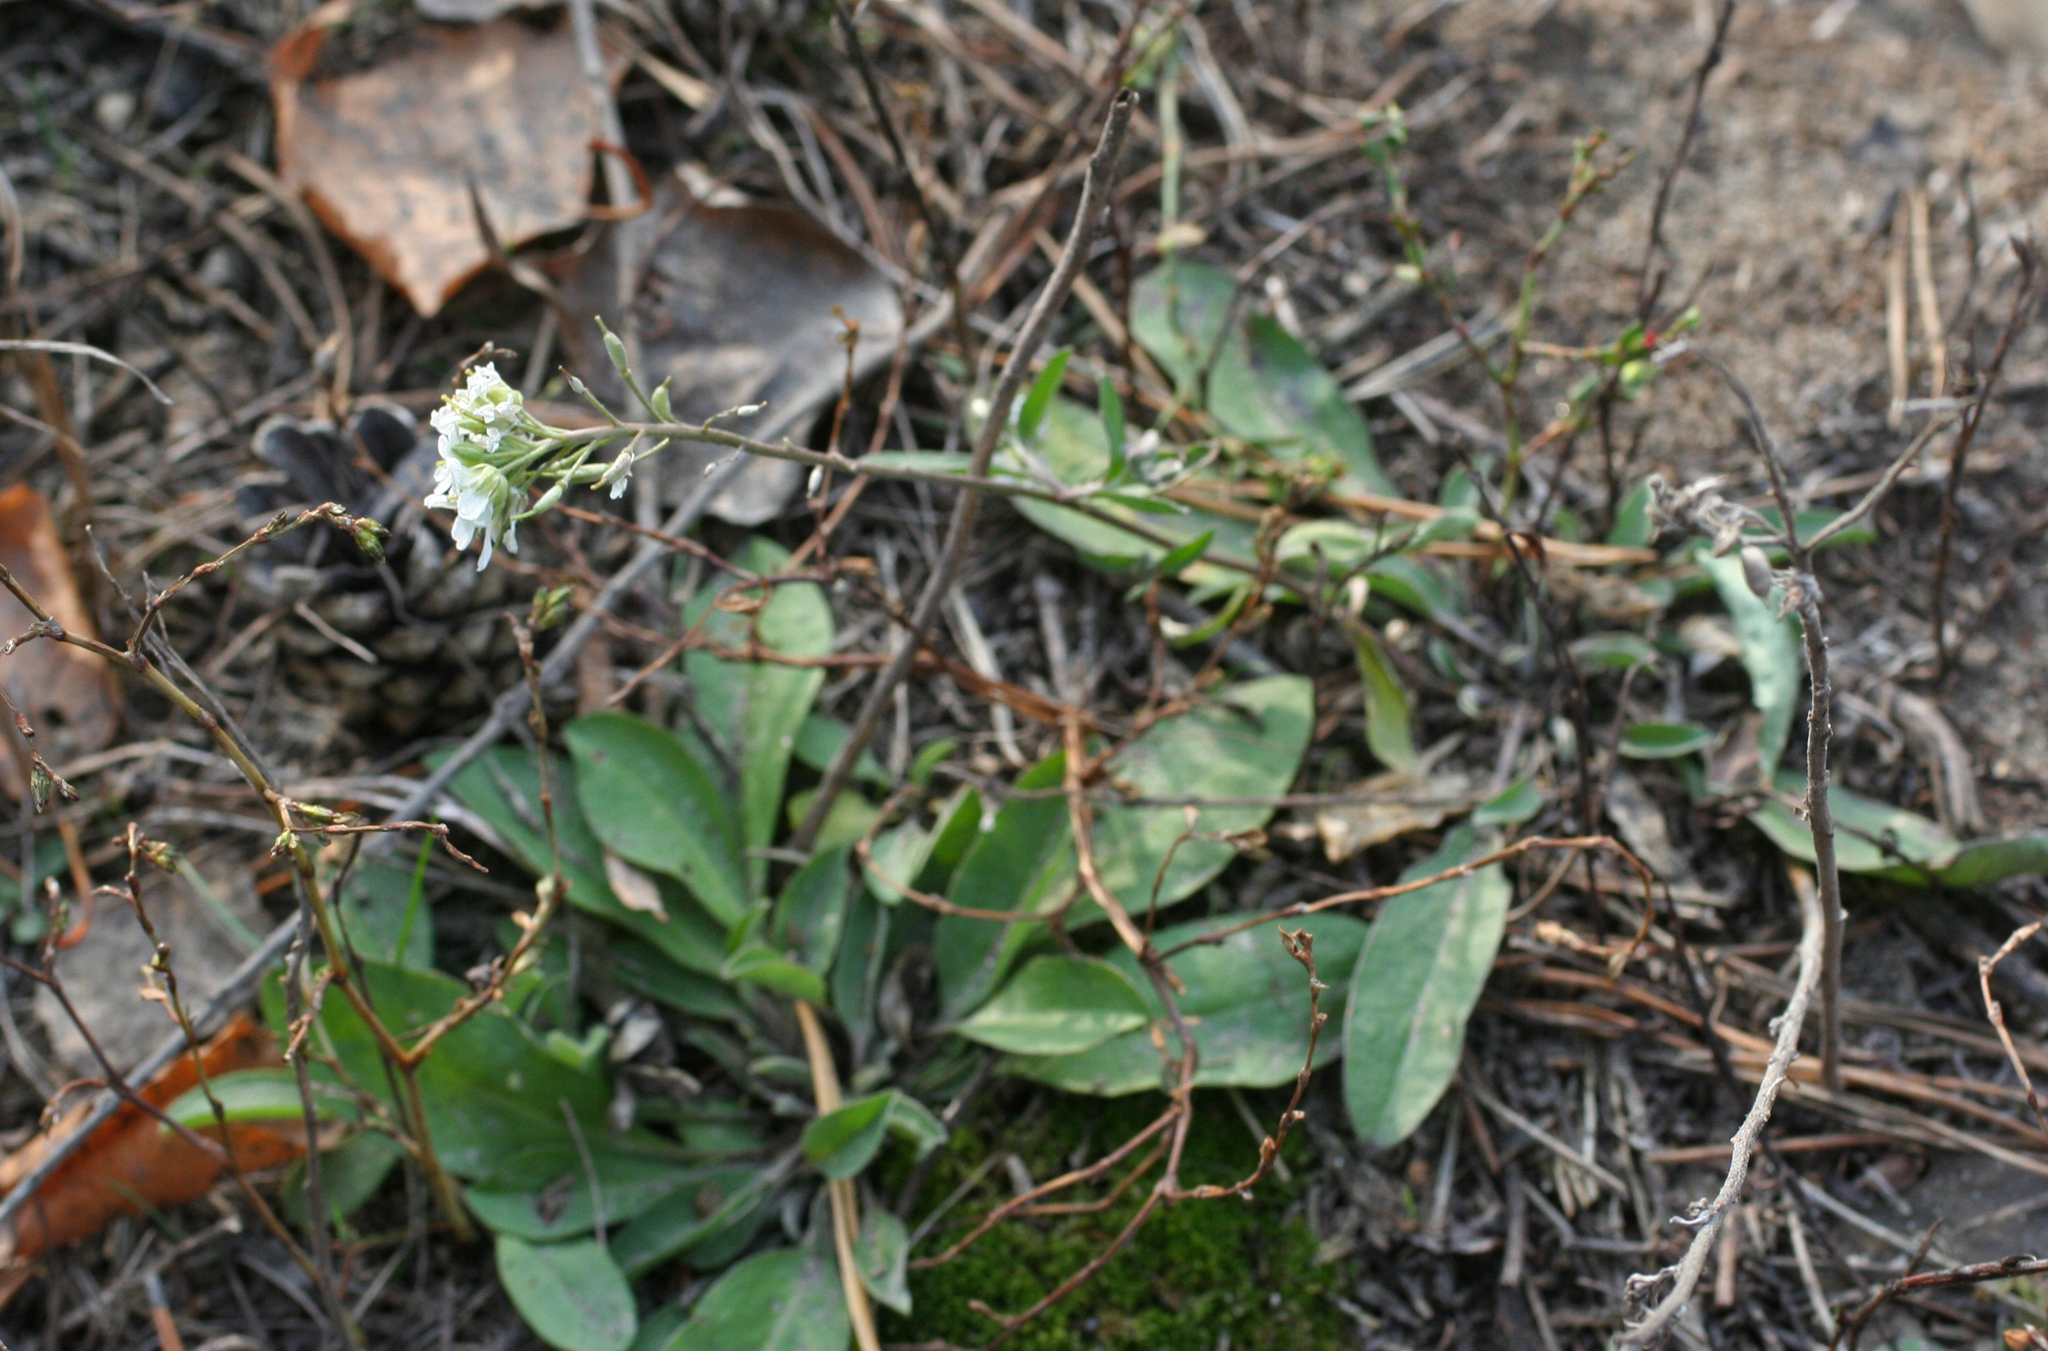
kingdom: Plantae
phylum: Tracheophyta
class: Magnoliopsida
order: Brassicales
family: Brassicaceae
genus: Berteroa
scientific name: Berteroa incana
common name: Hoary alison
